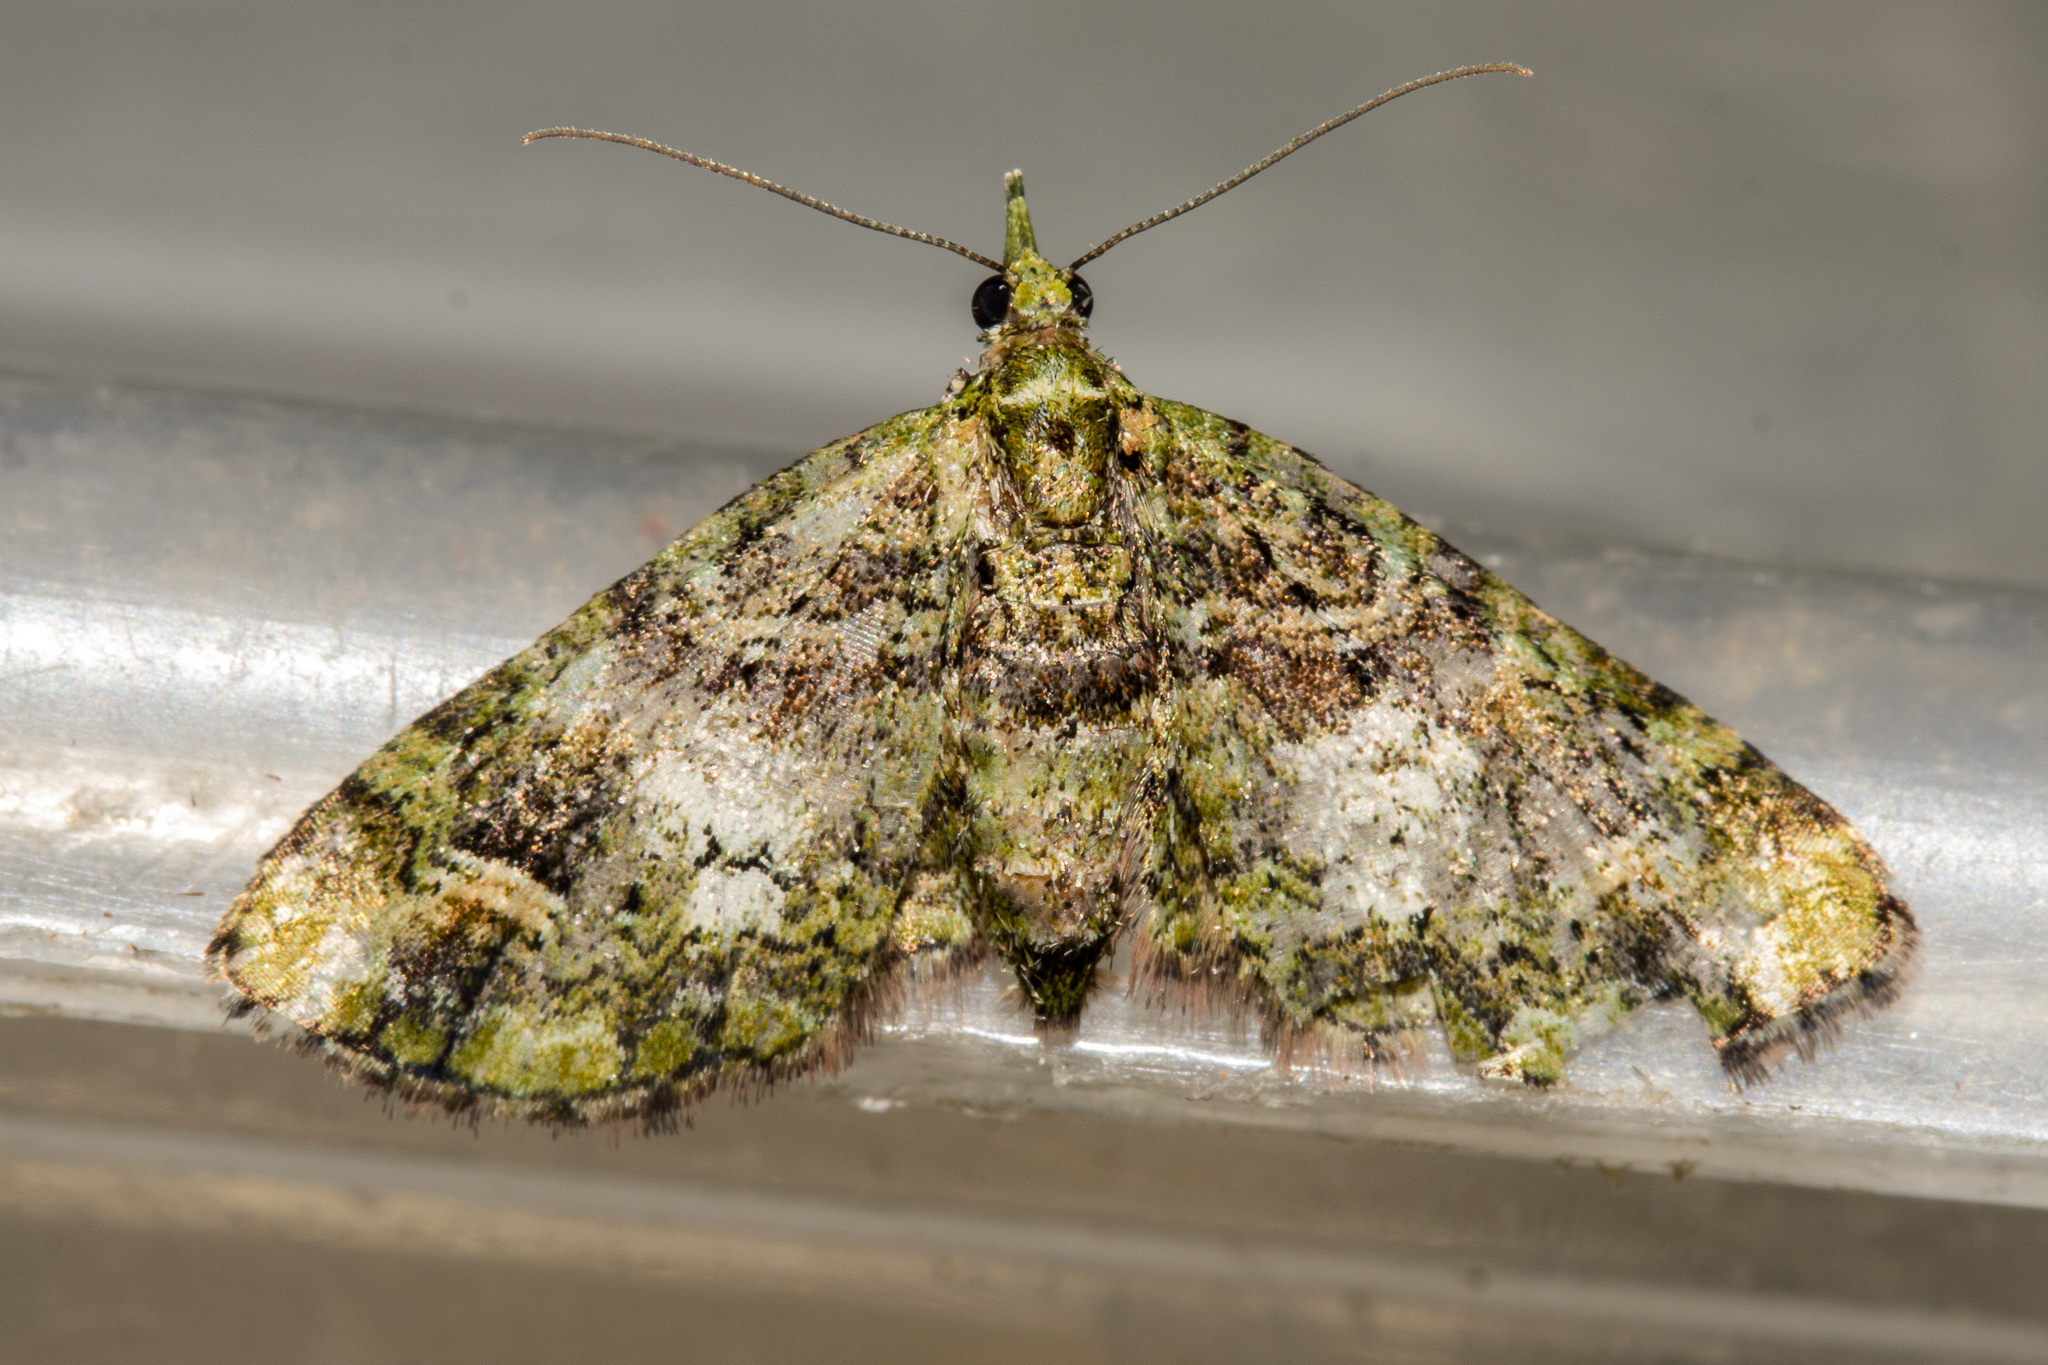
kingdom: Animalia
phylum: Arthropoda
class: Insecta
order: Lepidoptera
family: Geometridae
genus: Idaea
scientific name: Idaea mutanda
